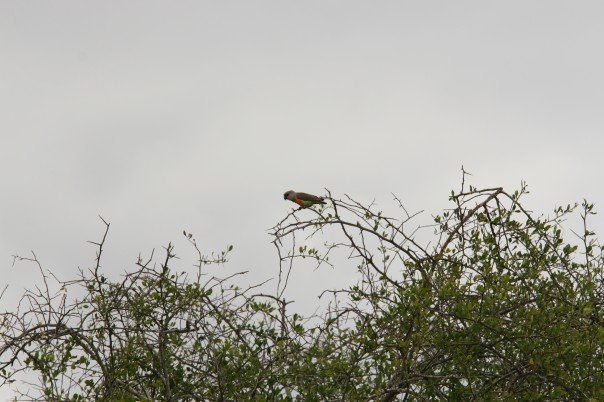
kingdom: Animalia
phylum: Chordata
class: Aves
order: Psittaciformes
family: Psittacidae
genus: Poicephalus
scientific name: Poicephalus rufiventris
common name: Red-bellied parrot
